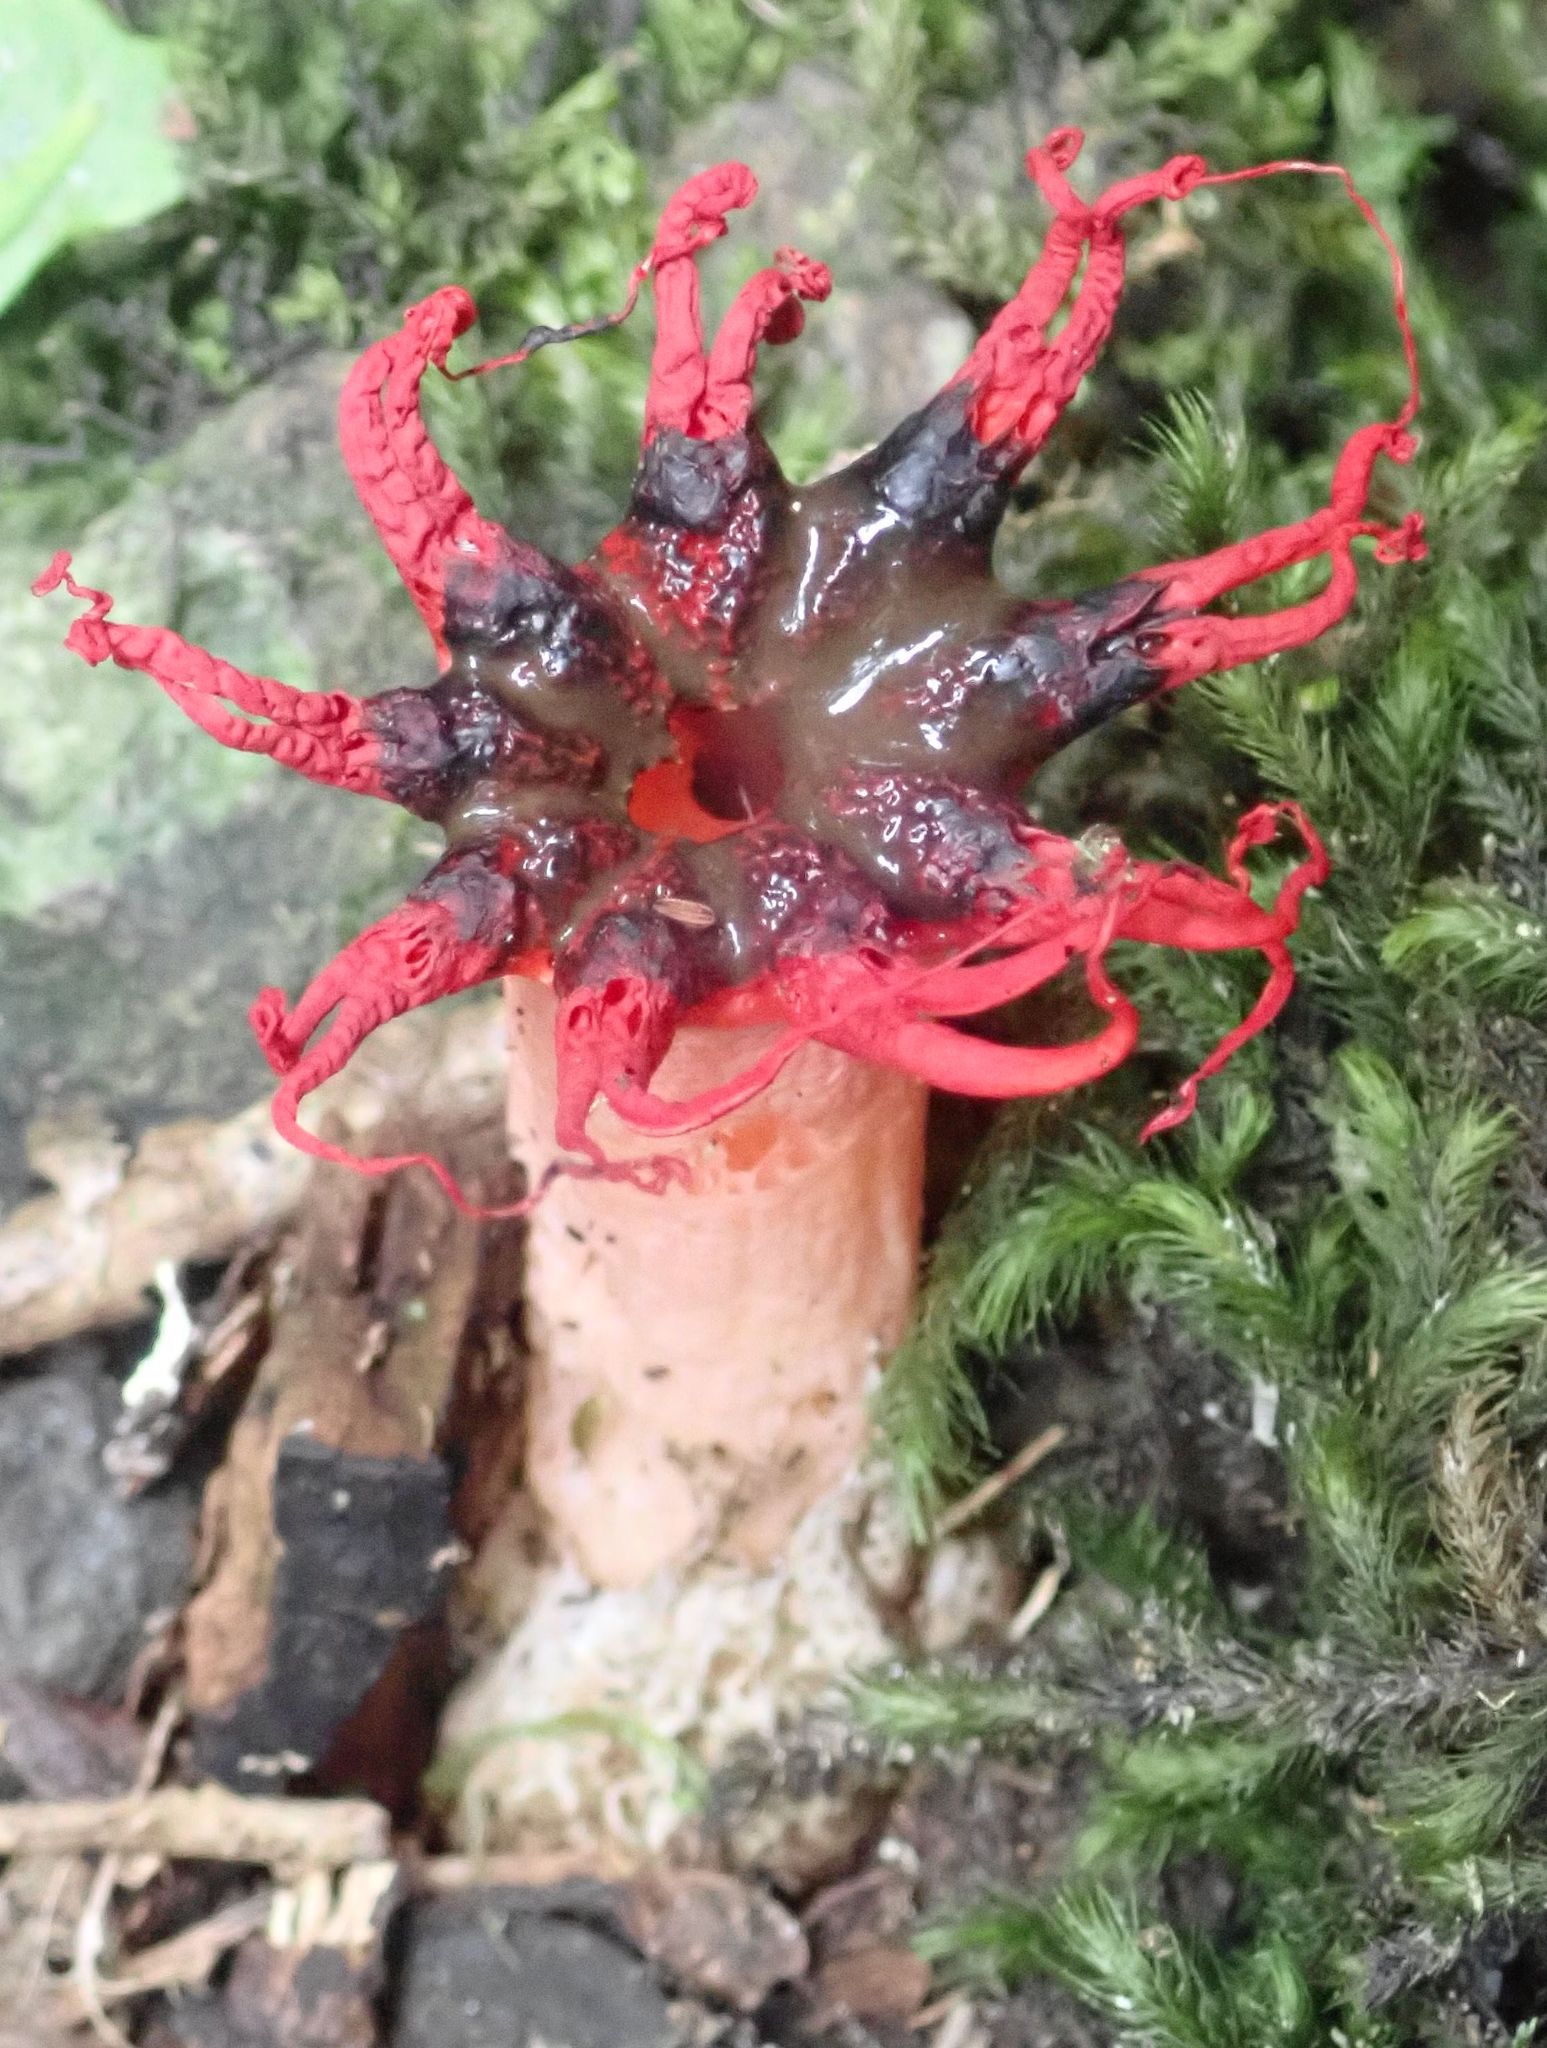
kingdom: Fungi
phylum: Basidiomycota
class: Agaricomycetes
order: Phallales
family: Phallaceae
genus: Aseroe
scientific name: Aseroe rubra
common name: Starfish fungus
